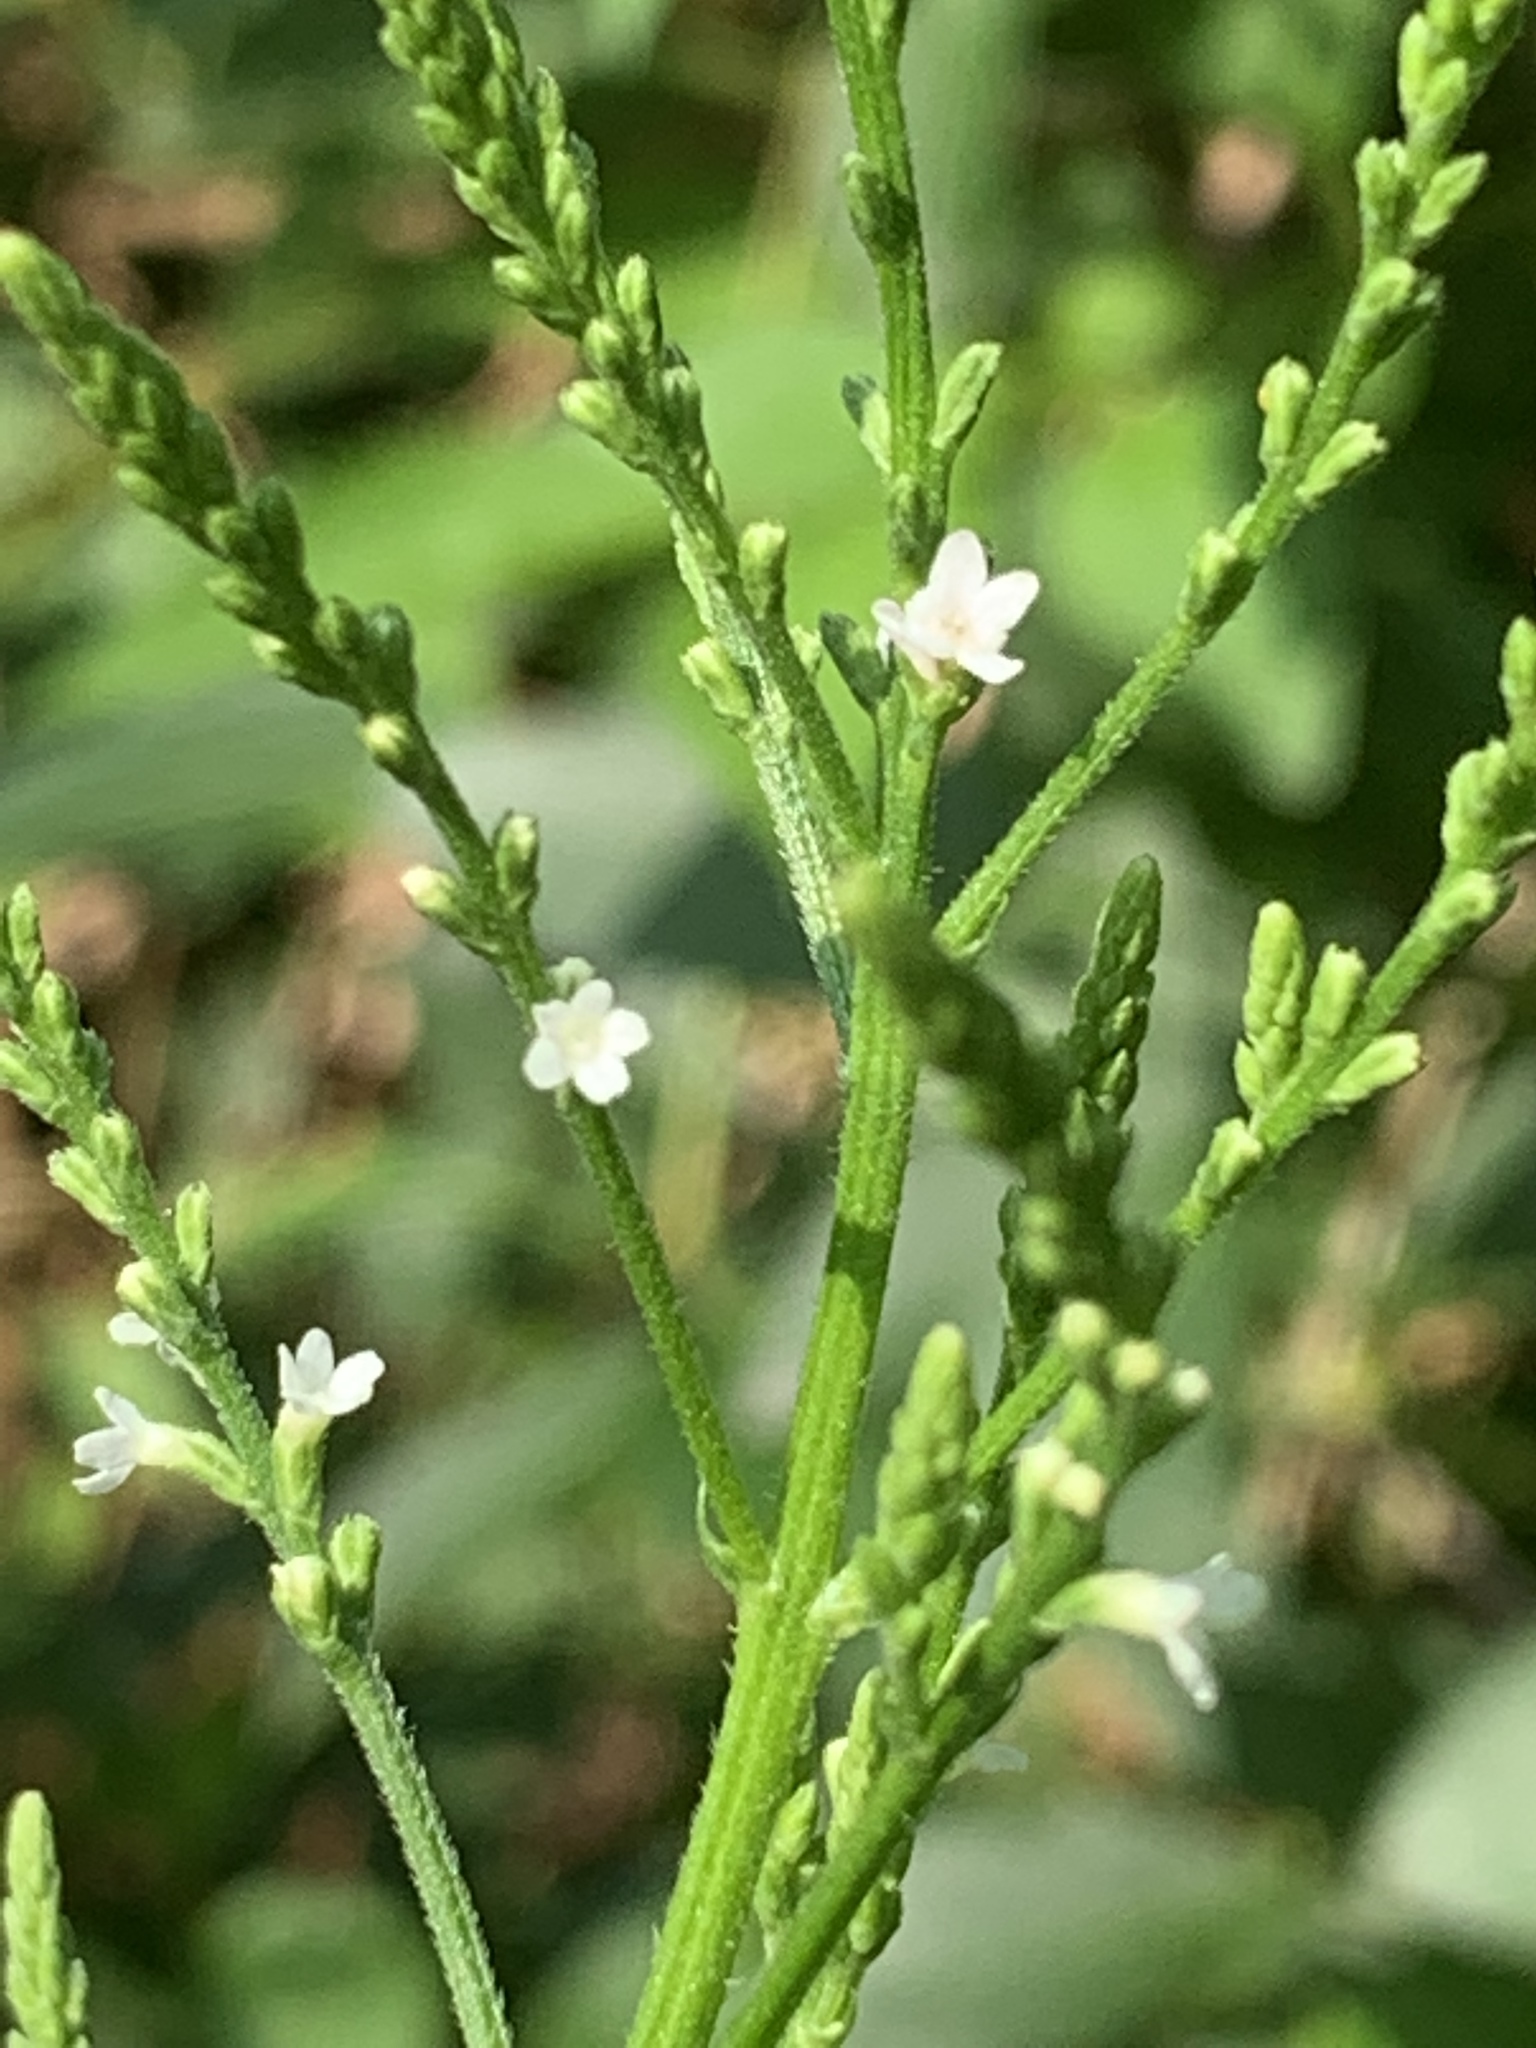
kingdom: Plantae
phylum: Tracheophyta
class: Magnoliopsida
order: Lamiales
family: Verbenaceae
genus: Verbena
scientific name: Verbena urticifolia
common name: Nettle-leaved vervain
